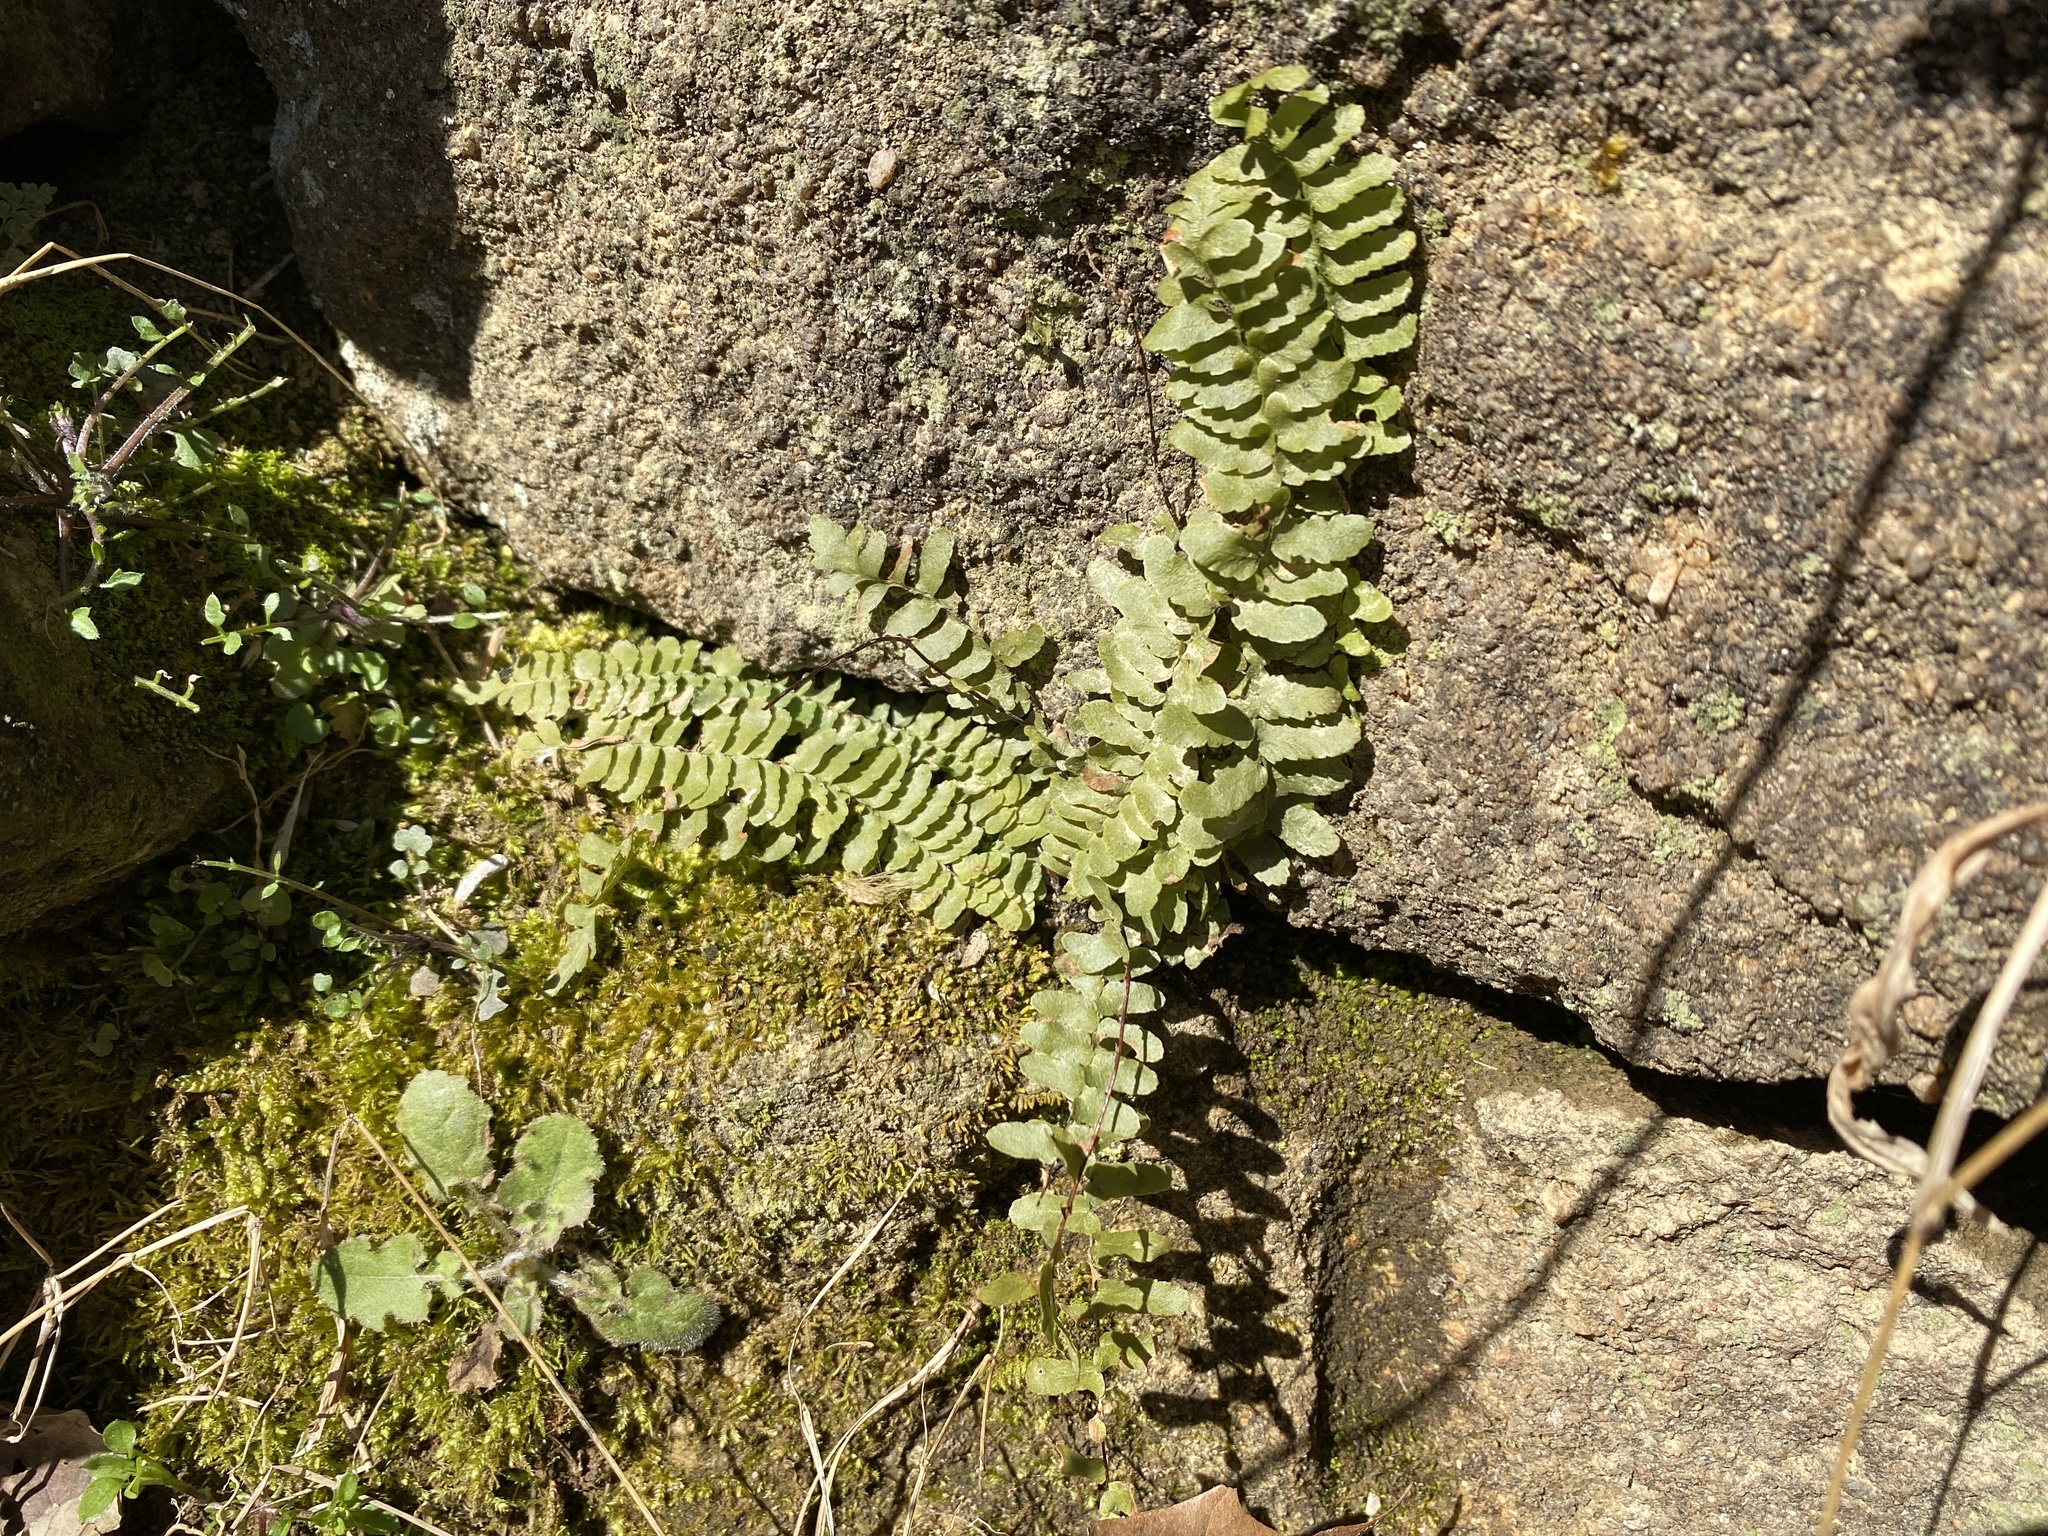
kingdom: Plantae
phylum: Tracheophyta
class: Polypodiopsida
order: Polypodiales
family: Aspleniaceae
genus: Asplenium
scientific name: Asplenium platyneuron
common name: Ebony spleenwort
